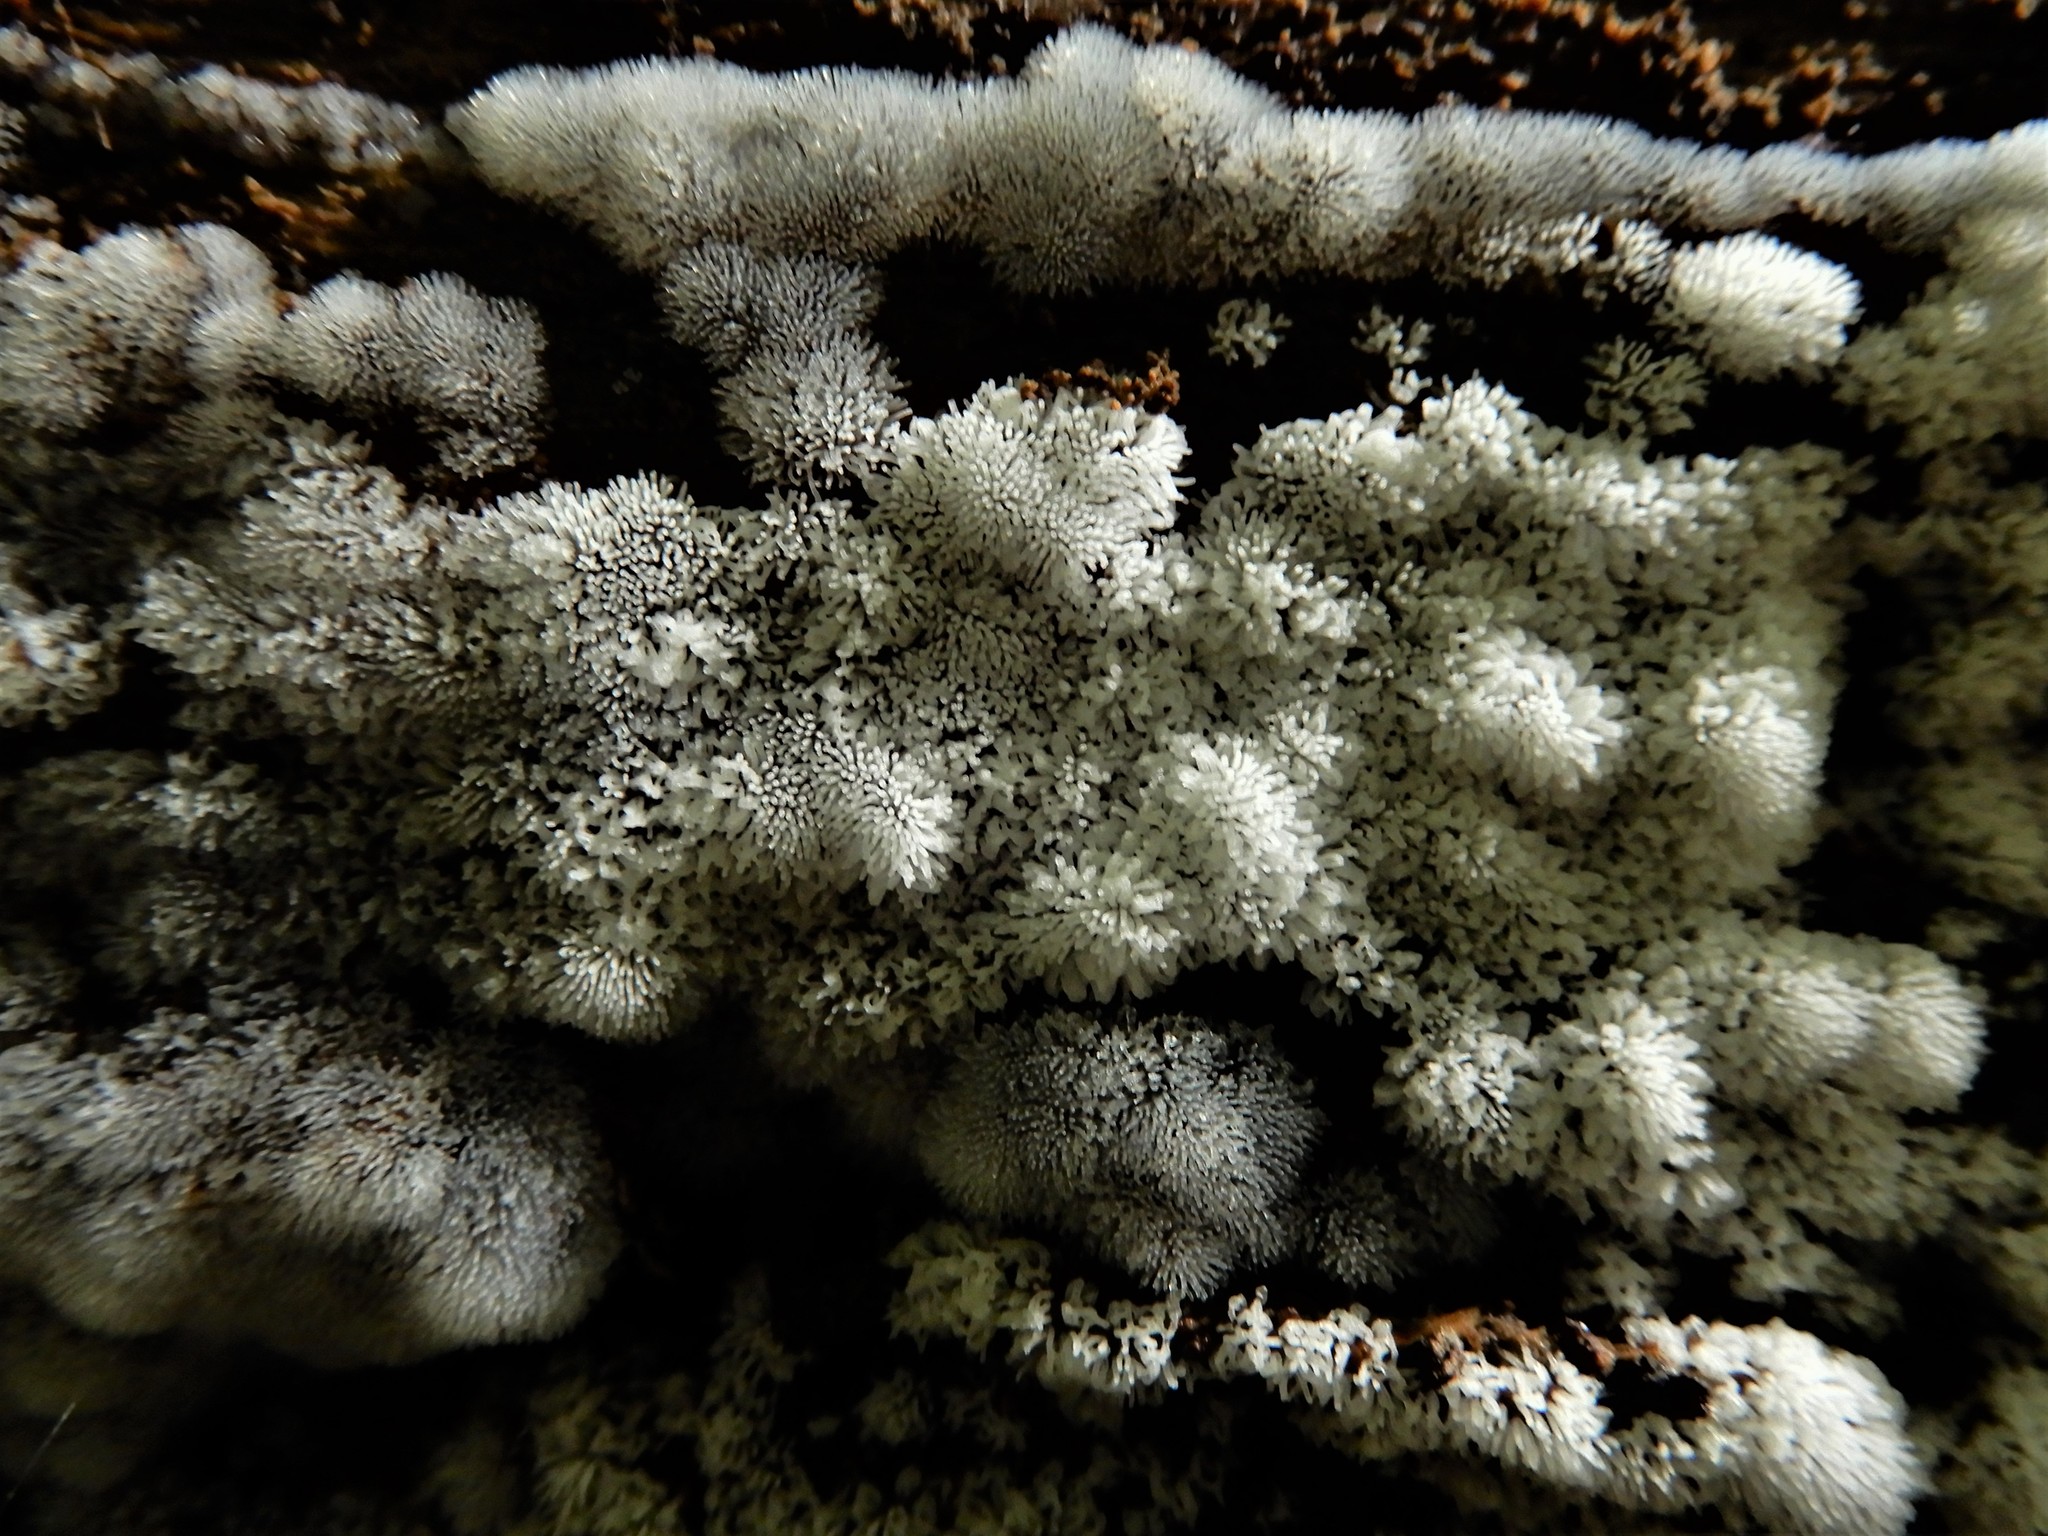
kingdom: Protozoa
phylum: Mycetozoa
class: Protosteliomycetes
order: Ceratiomyxales
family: Ceratiomyxaceae
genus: Ceratiomyxa
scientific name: Ceratiomyxa fruticulosa
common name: Honeycomb coral slime mold
